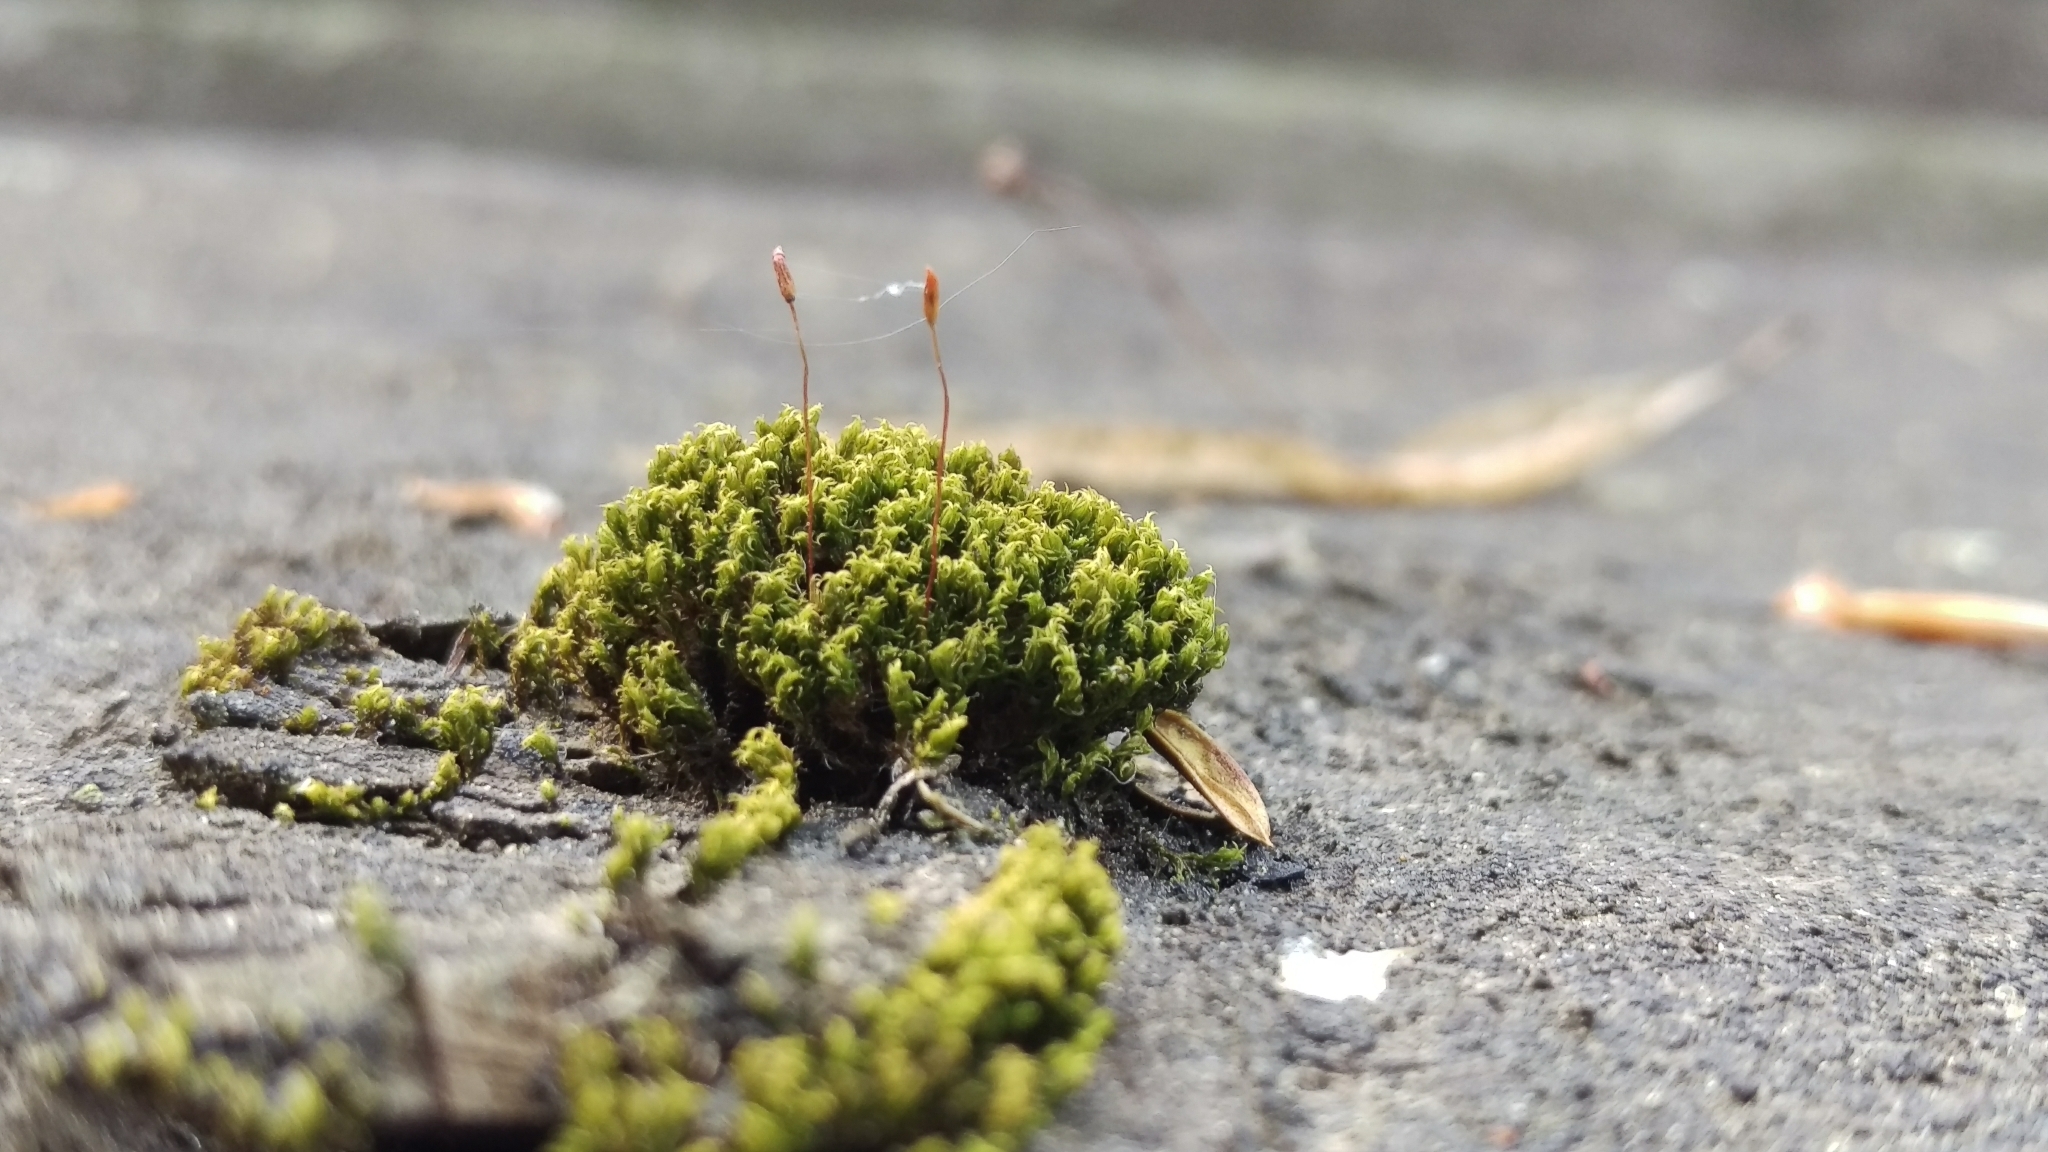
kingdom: Plantae
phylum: Bryophyta
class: Bryopsida
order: Dicranales
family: Rhabdoweisiaceae
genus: Dicranoweisia
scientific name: Dicranoweisia cirrata
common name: Common pincushion
